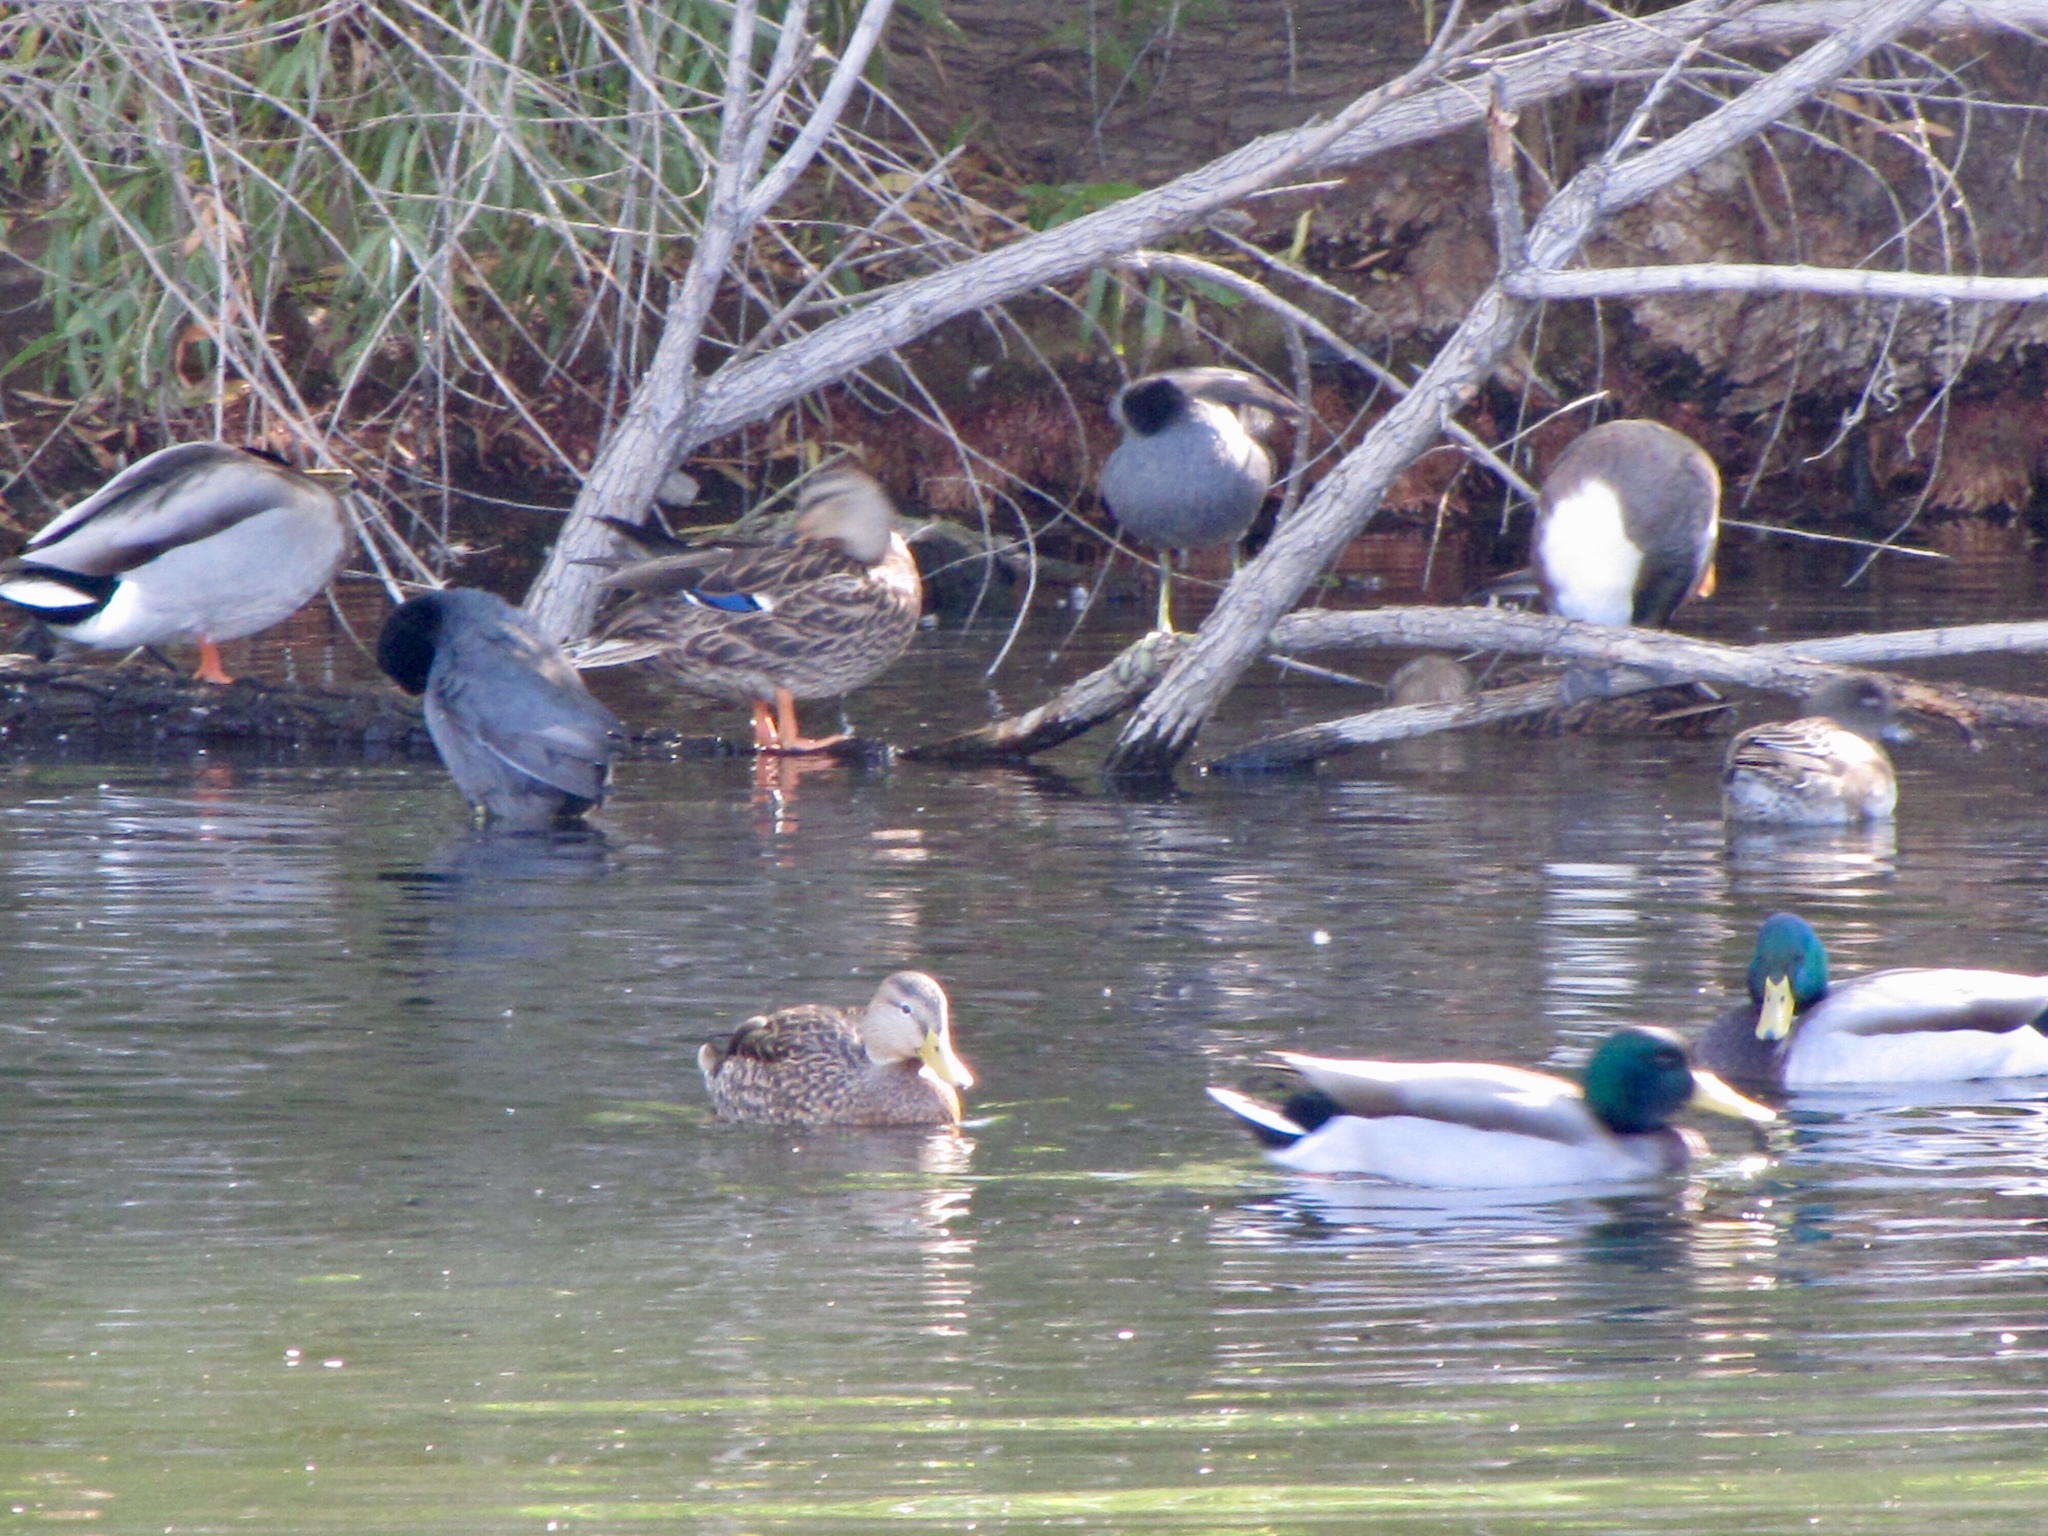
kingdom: Animalia
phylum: Chordata
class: Aves
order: Anseriformes
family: Anatidae
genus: Anas
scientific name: Anas platyrhynchos
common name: Mallard
